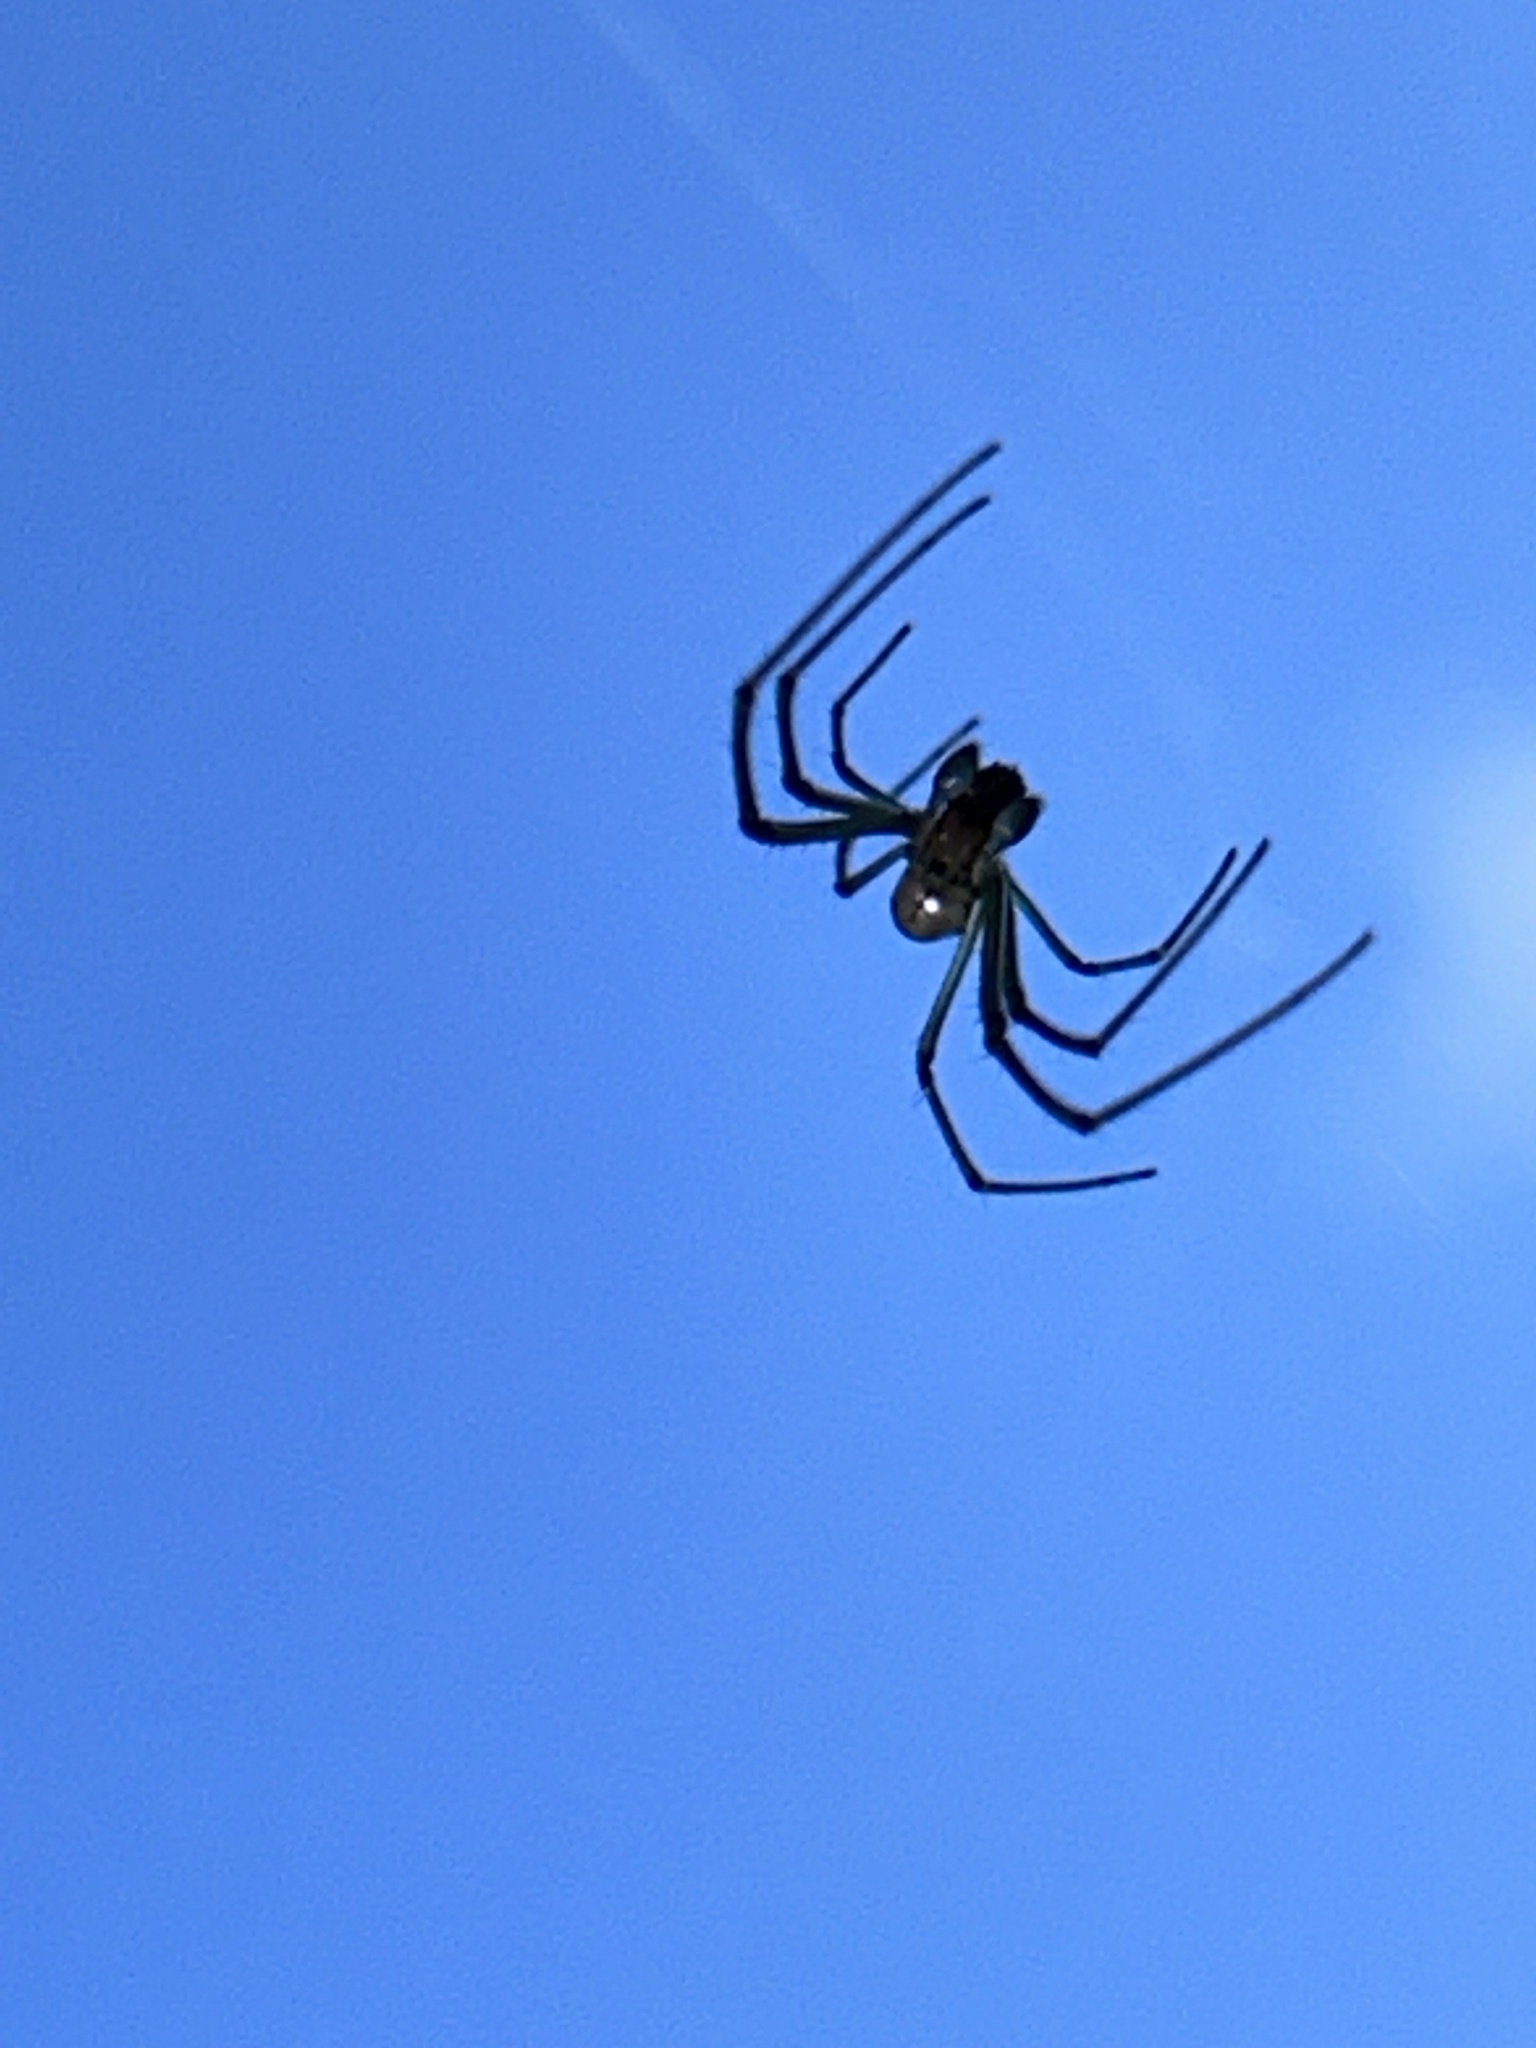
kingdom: Animalia
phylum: Arthropoda
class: Arachnida
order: Araneae
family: Tetragnathidae
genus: Leucauge
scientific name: Leucauge argyra
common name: Longjawed orb weavers
